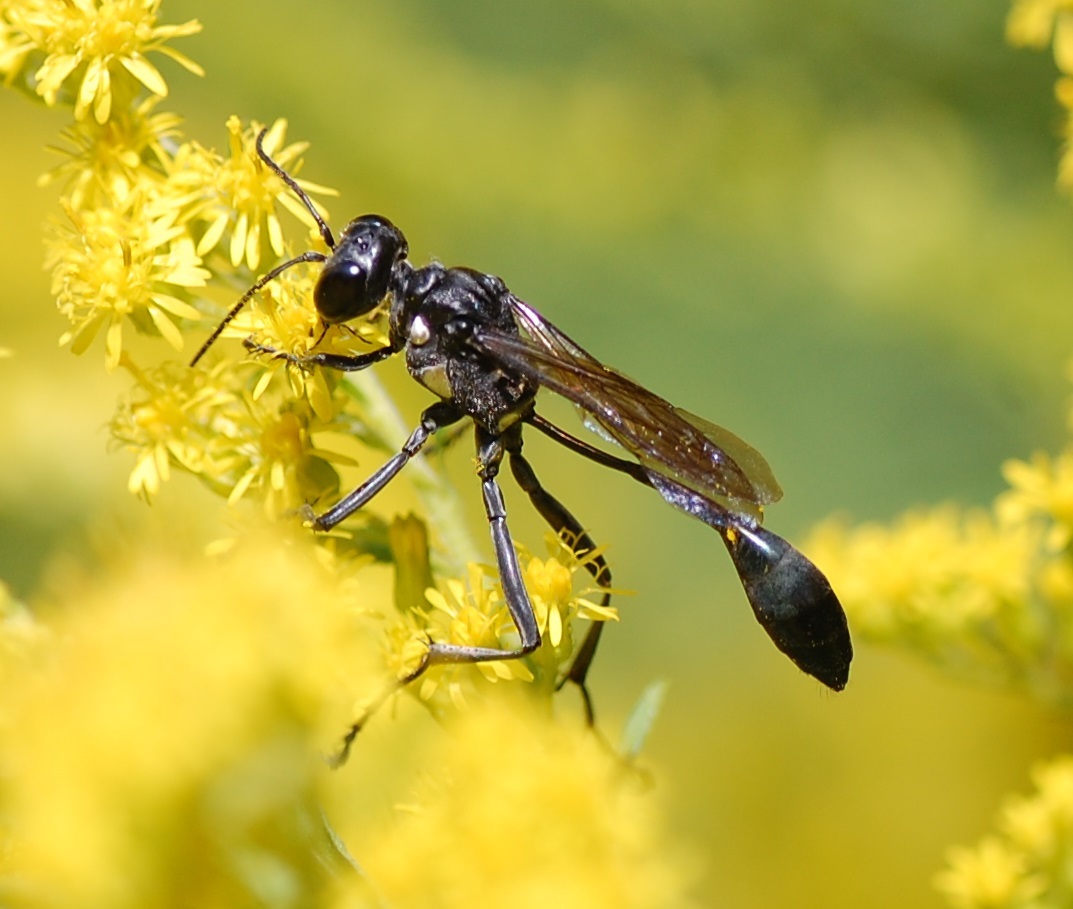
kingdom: Animalia
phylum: Arthropoda
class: Insecta
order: Hymenoptera
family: Sphecidae
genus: Eremnophila
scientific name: Eremnophila aureonotata
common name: Gold-marked thread-waisted wasp
